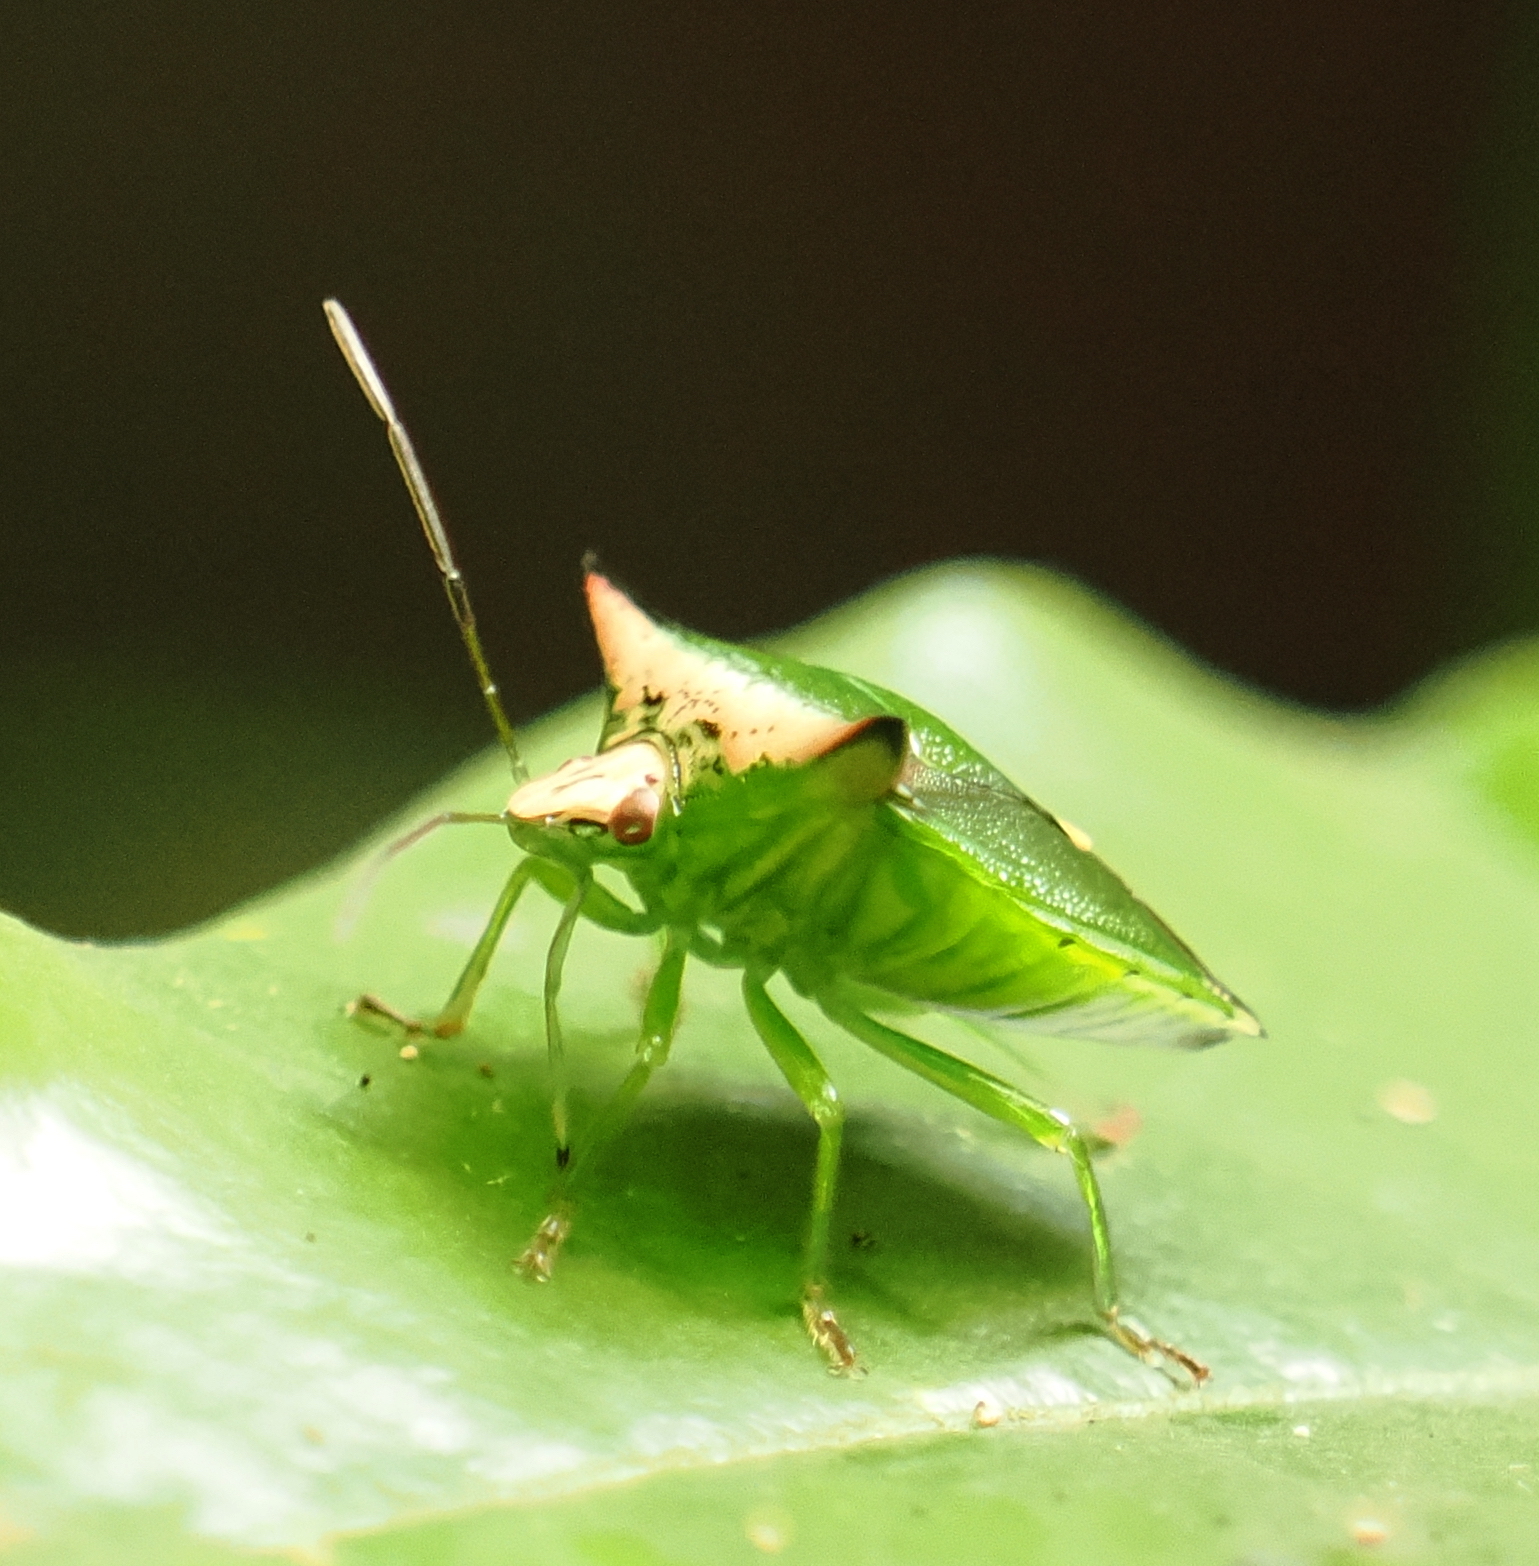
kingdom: Animalia
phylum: Arthropoda
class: Insecta
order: Hemiptera
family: Pentatomidae
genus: Anaca
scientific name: Anaca
